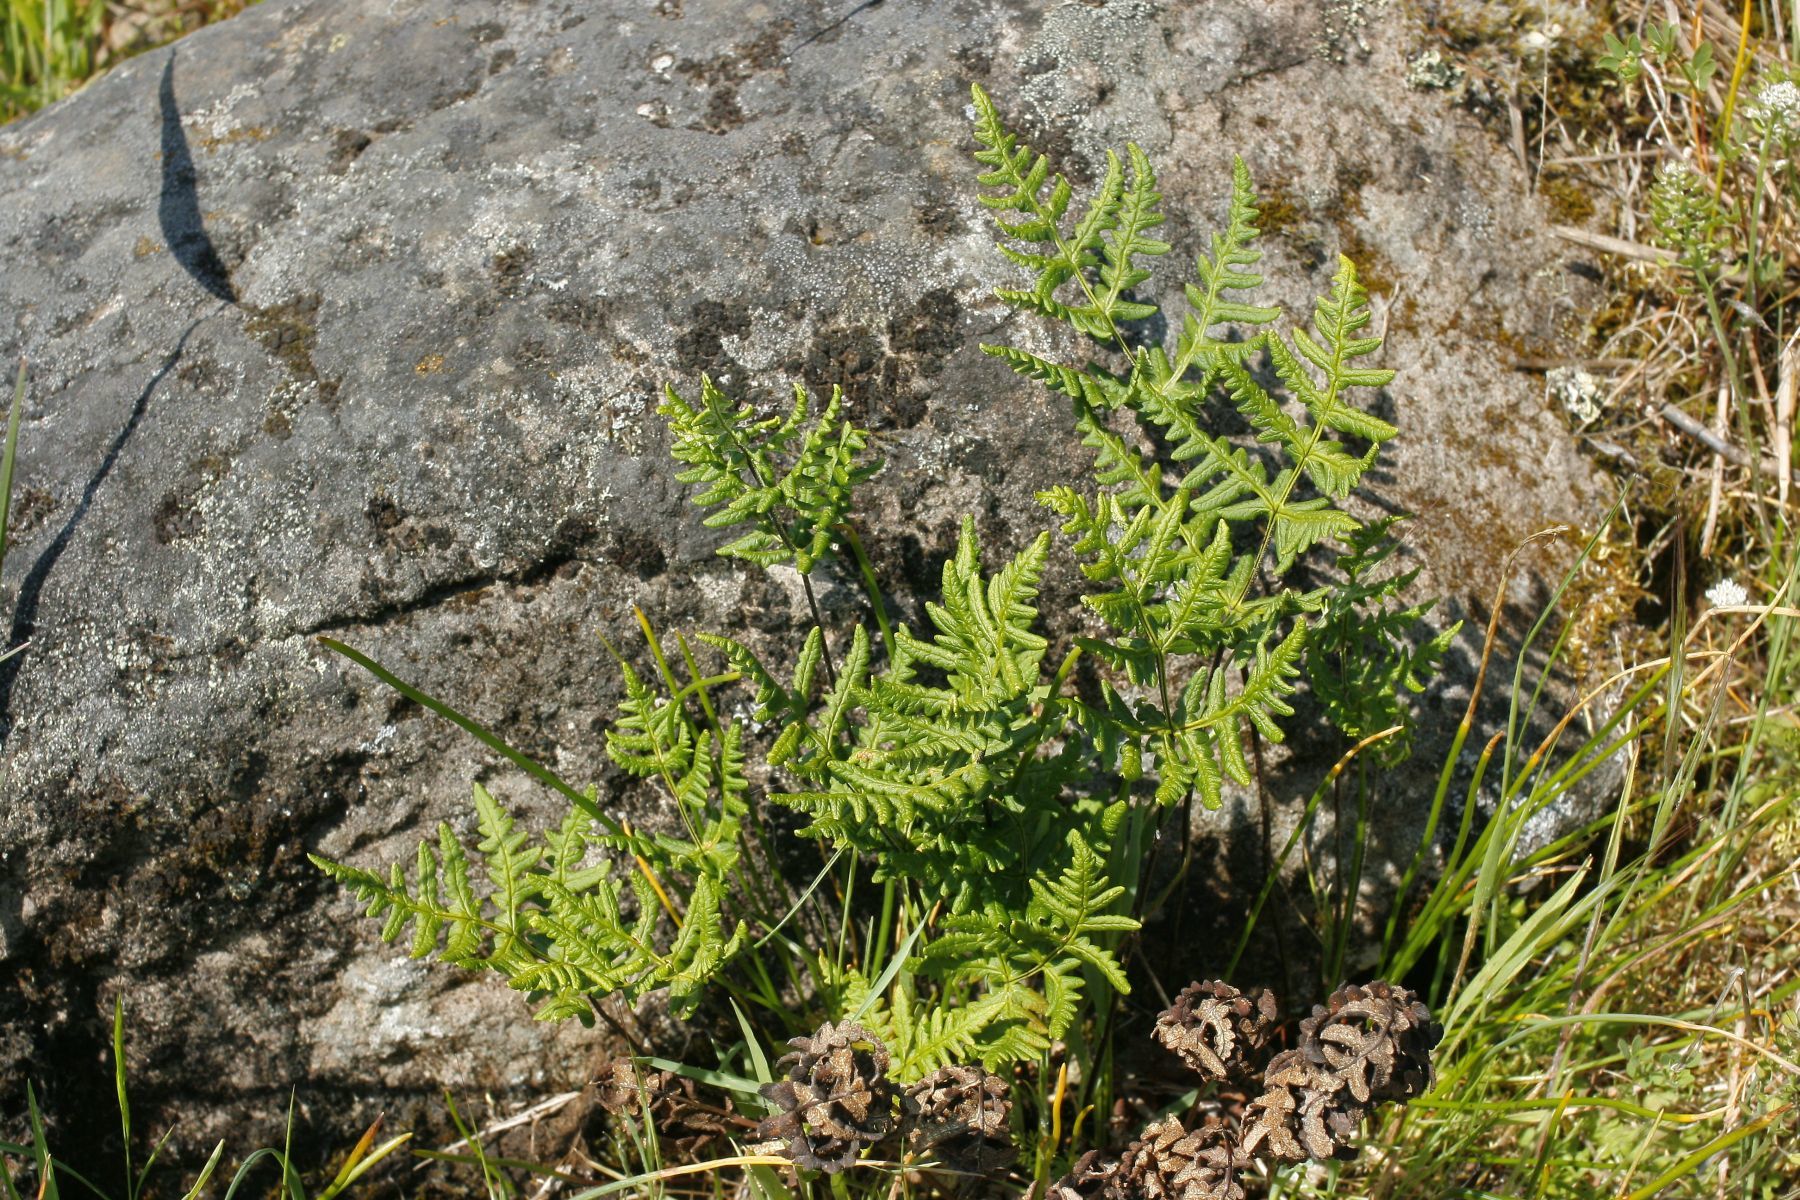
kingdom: Plantae
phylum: Tracheophyta
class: Polypodiopsida
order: Polypodiales
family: Pteridaceae
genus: Pentagramma
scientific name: Pentagramma triangularis
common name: Gold fern
